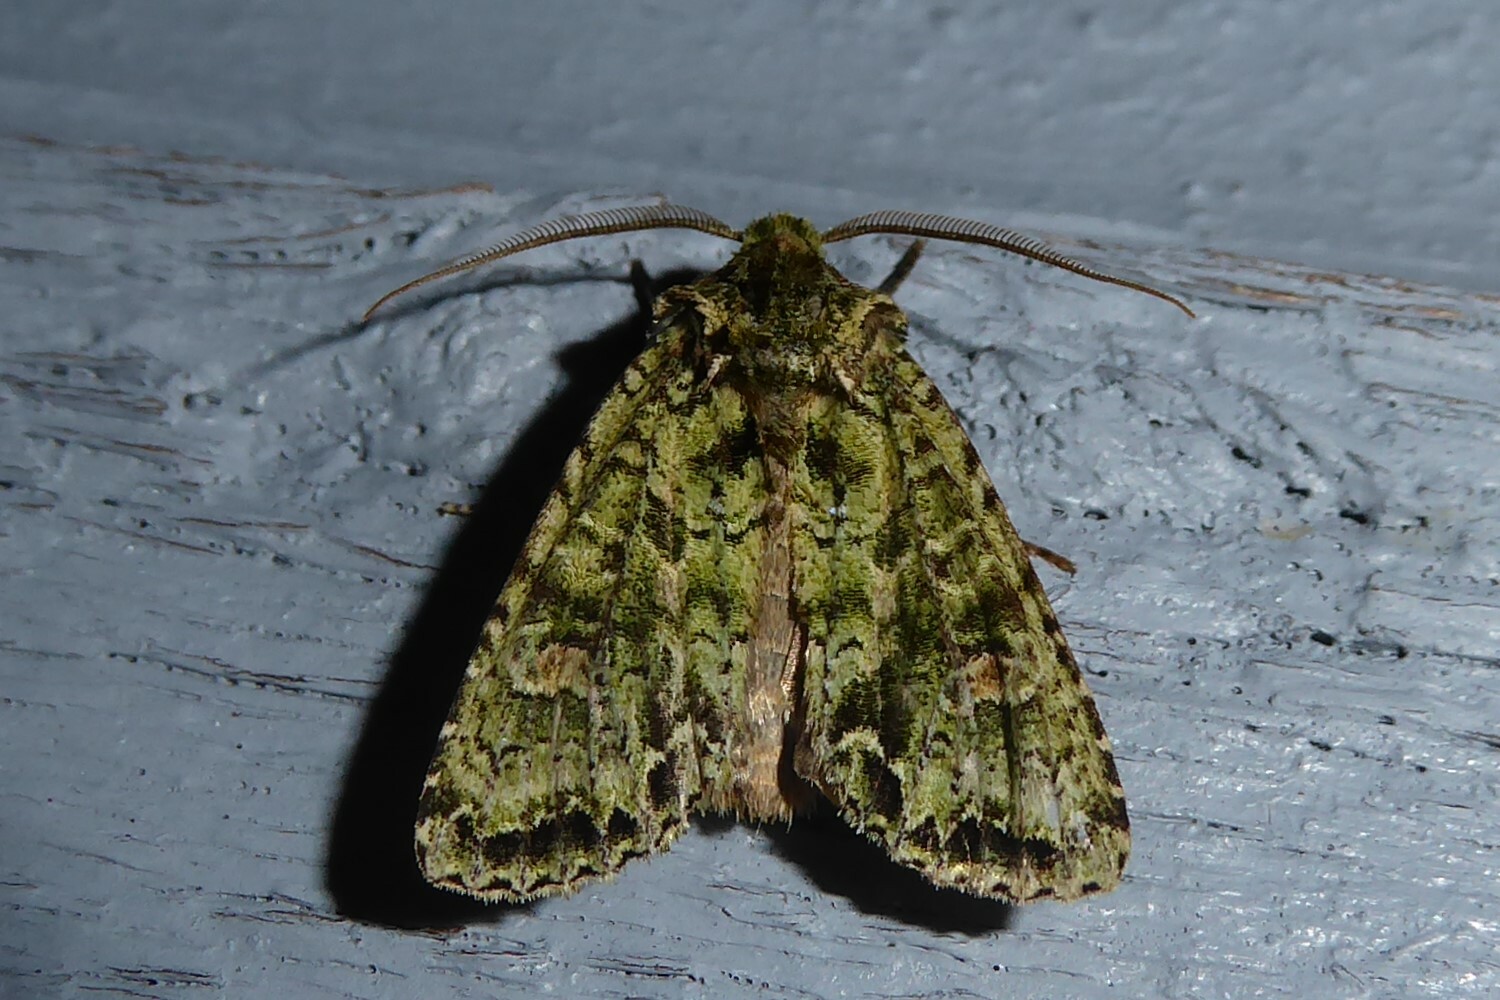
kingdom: Animalia
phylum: Arthropoda
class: Insecta
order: Lepidoptera
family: Noctuidae
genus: Ichneutica
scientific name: Ichneutica
